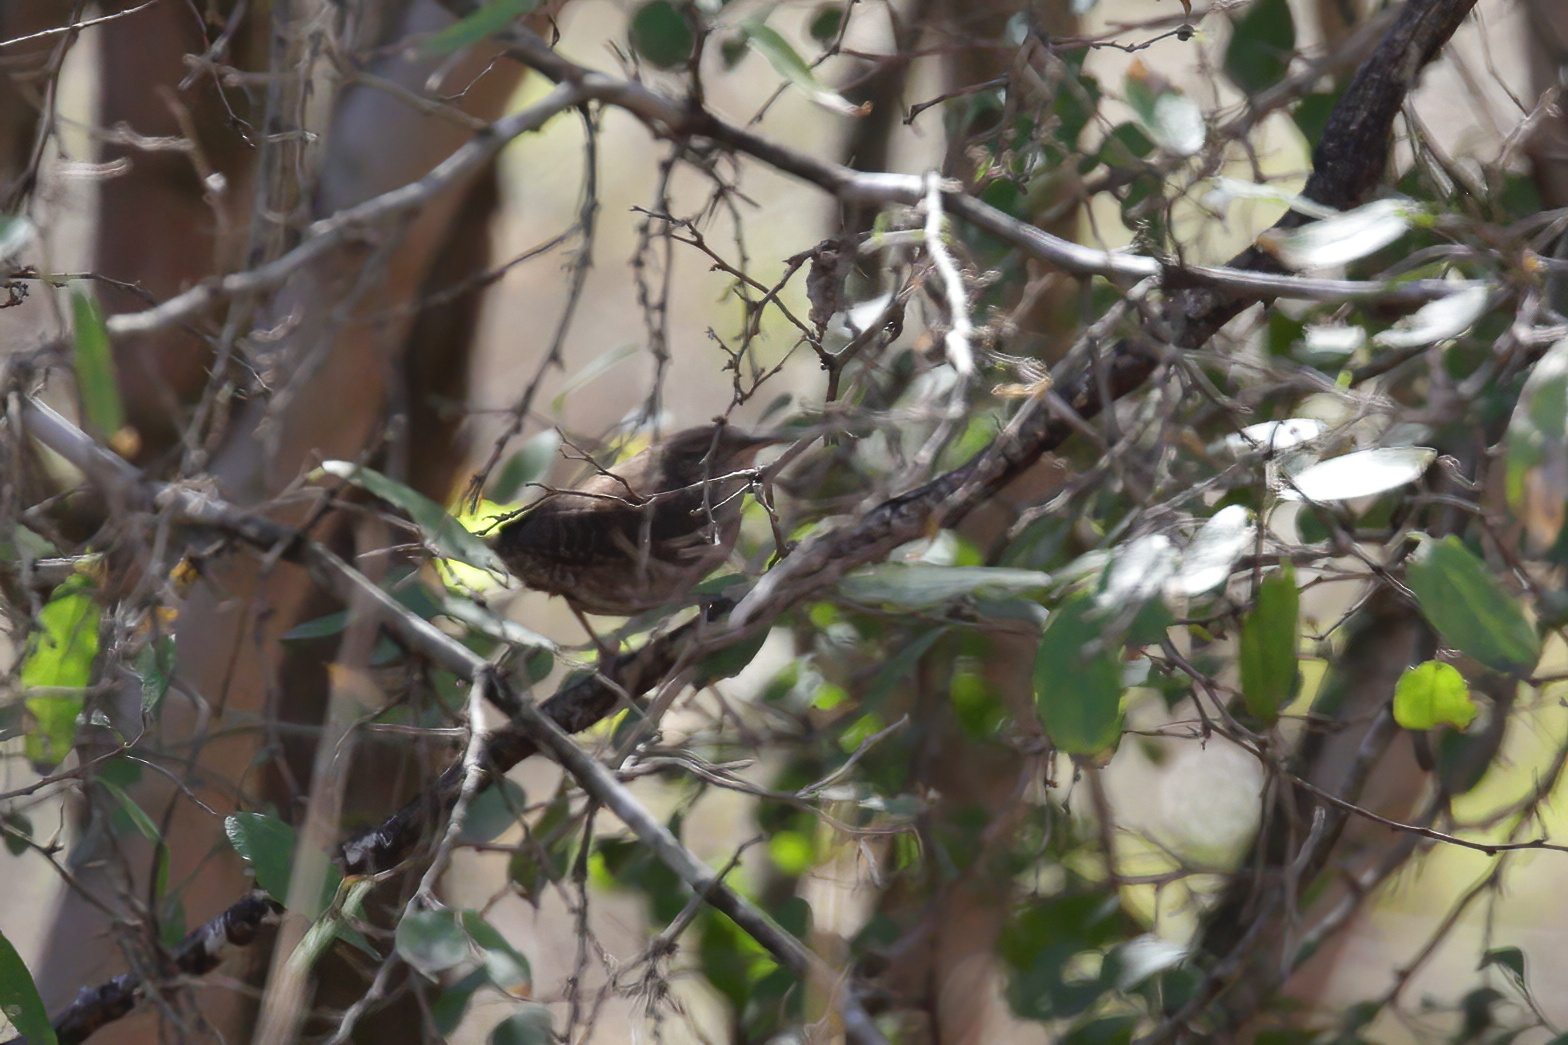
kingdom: Animalia
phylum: Chordata
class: Aves
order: Passeriformes
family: Troglodytidae
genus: Troglodytes
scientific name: Troglodytes aedon
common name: House wren
